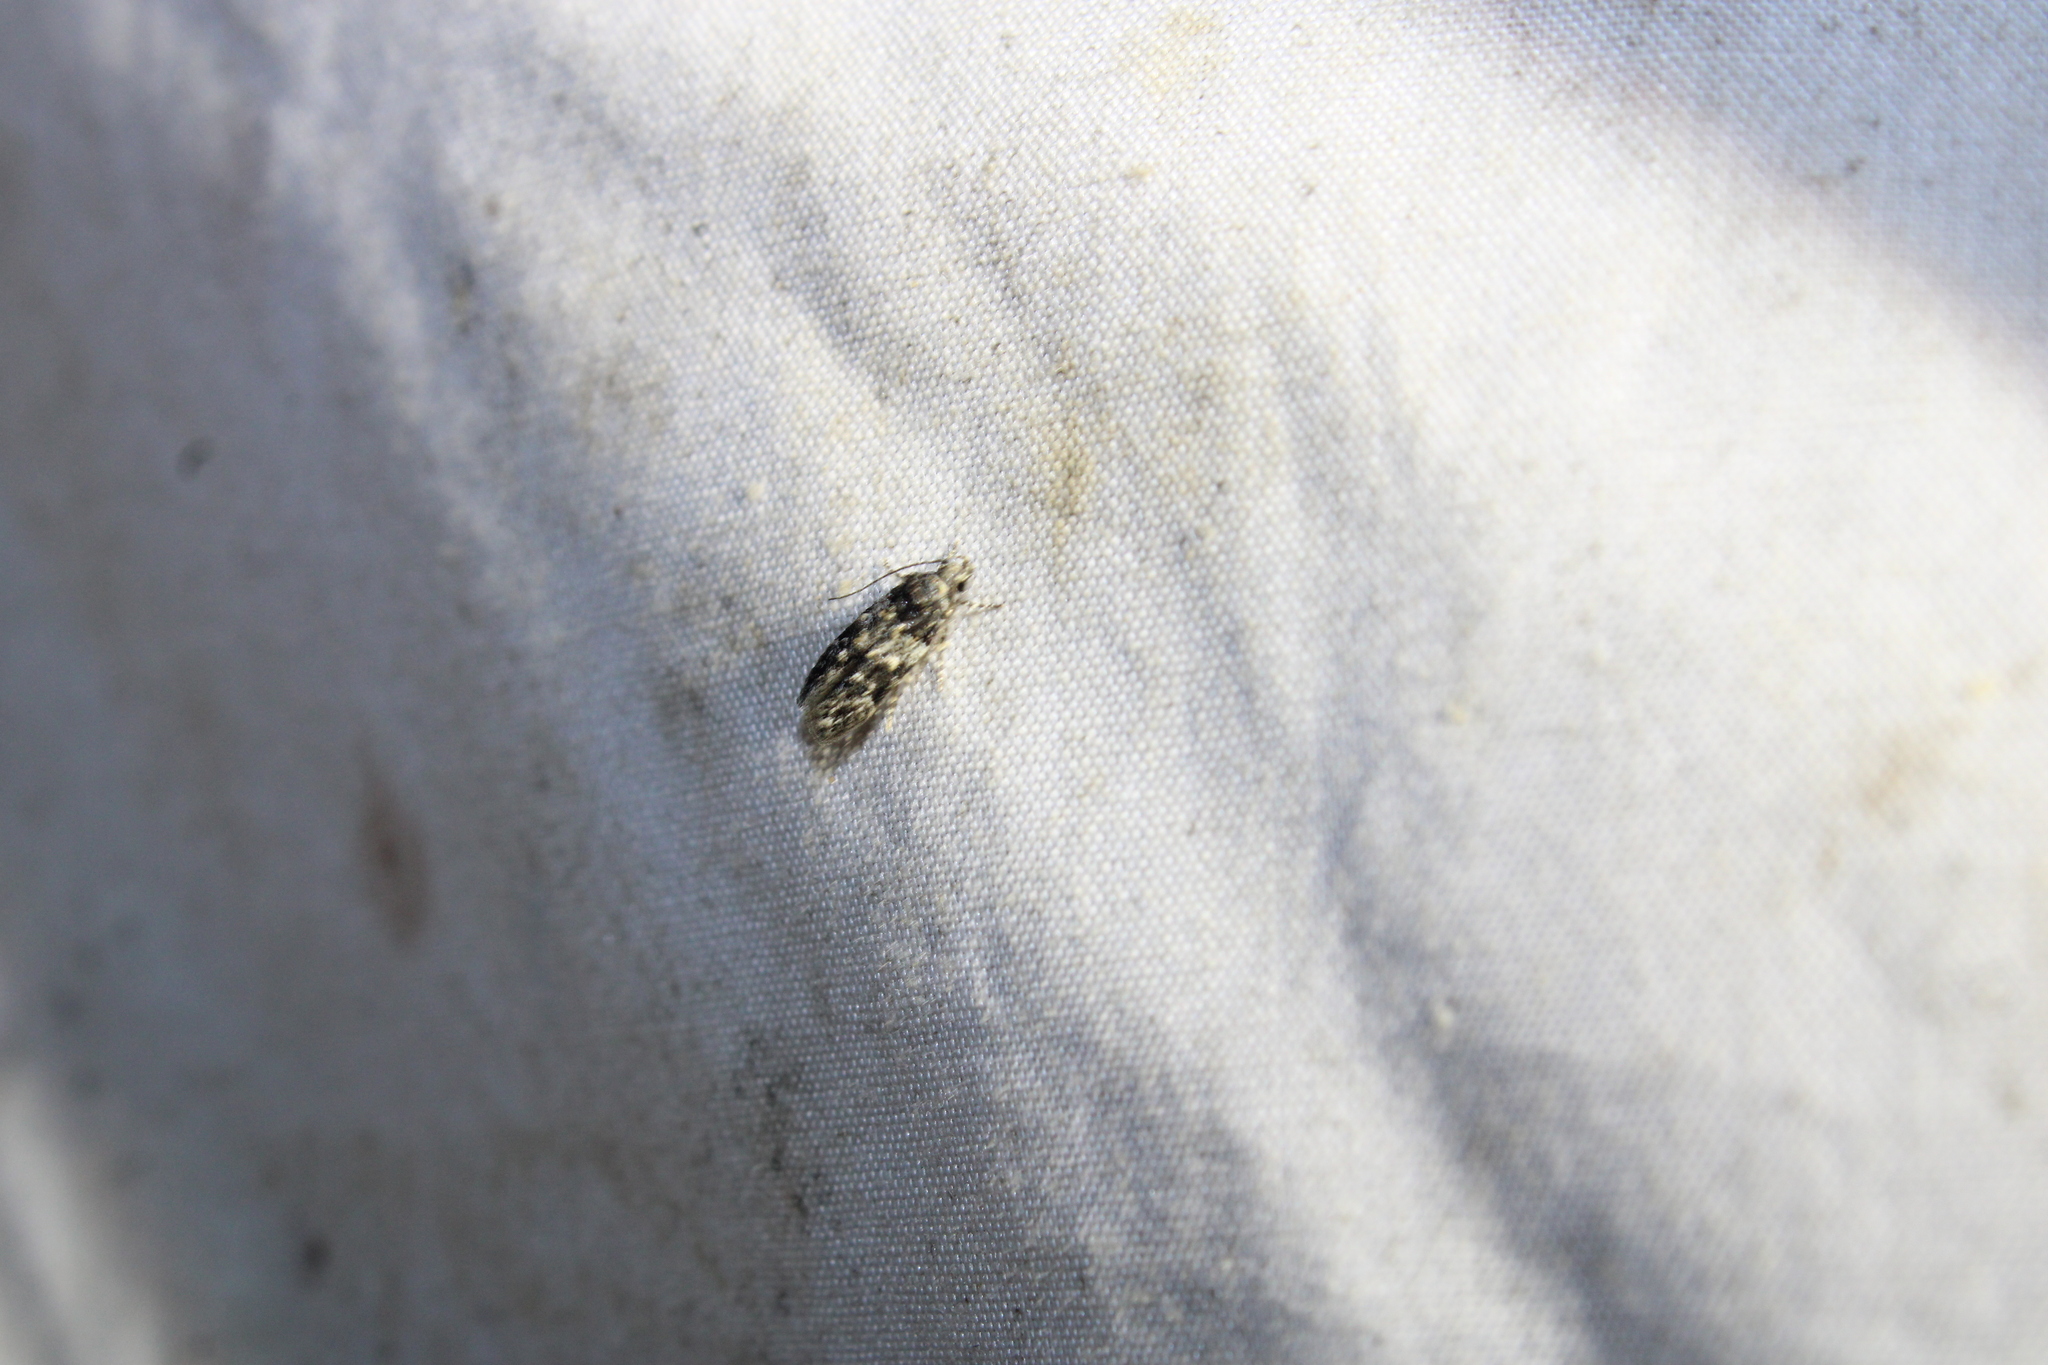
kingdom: Animalia
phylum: Arthropoda
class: Insecta
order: Lepidoptera
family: Gelechiidae
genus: Pubitelphusa
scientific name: Pubitelphusa latifasciella
